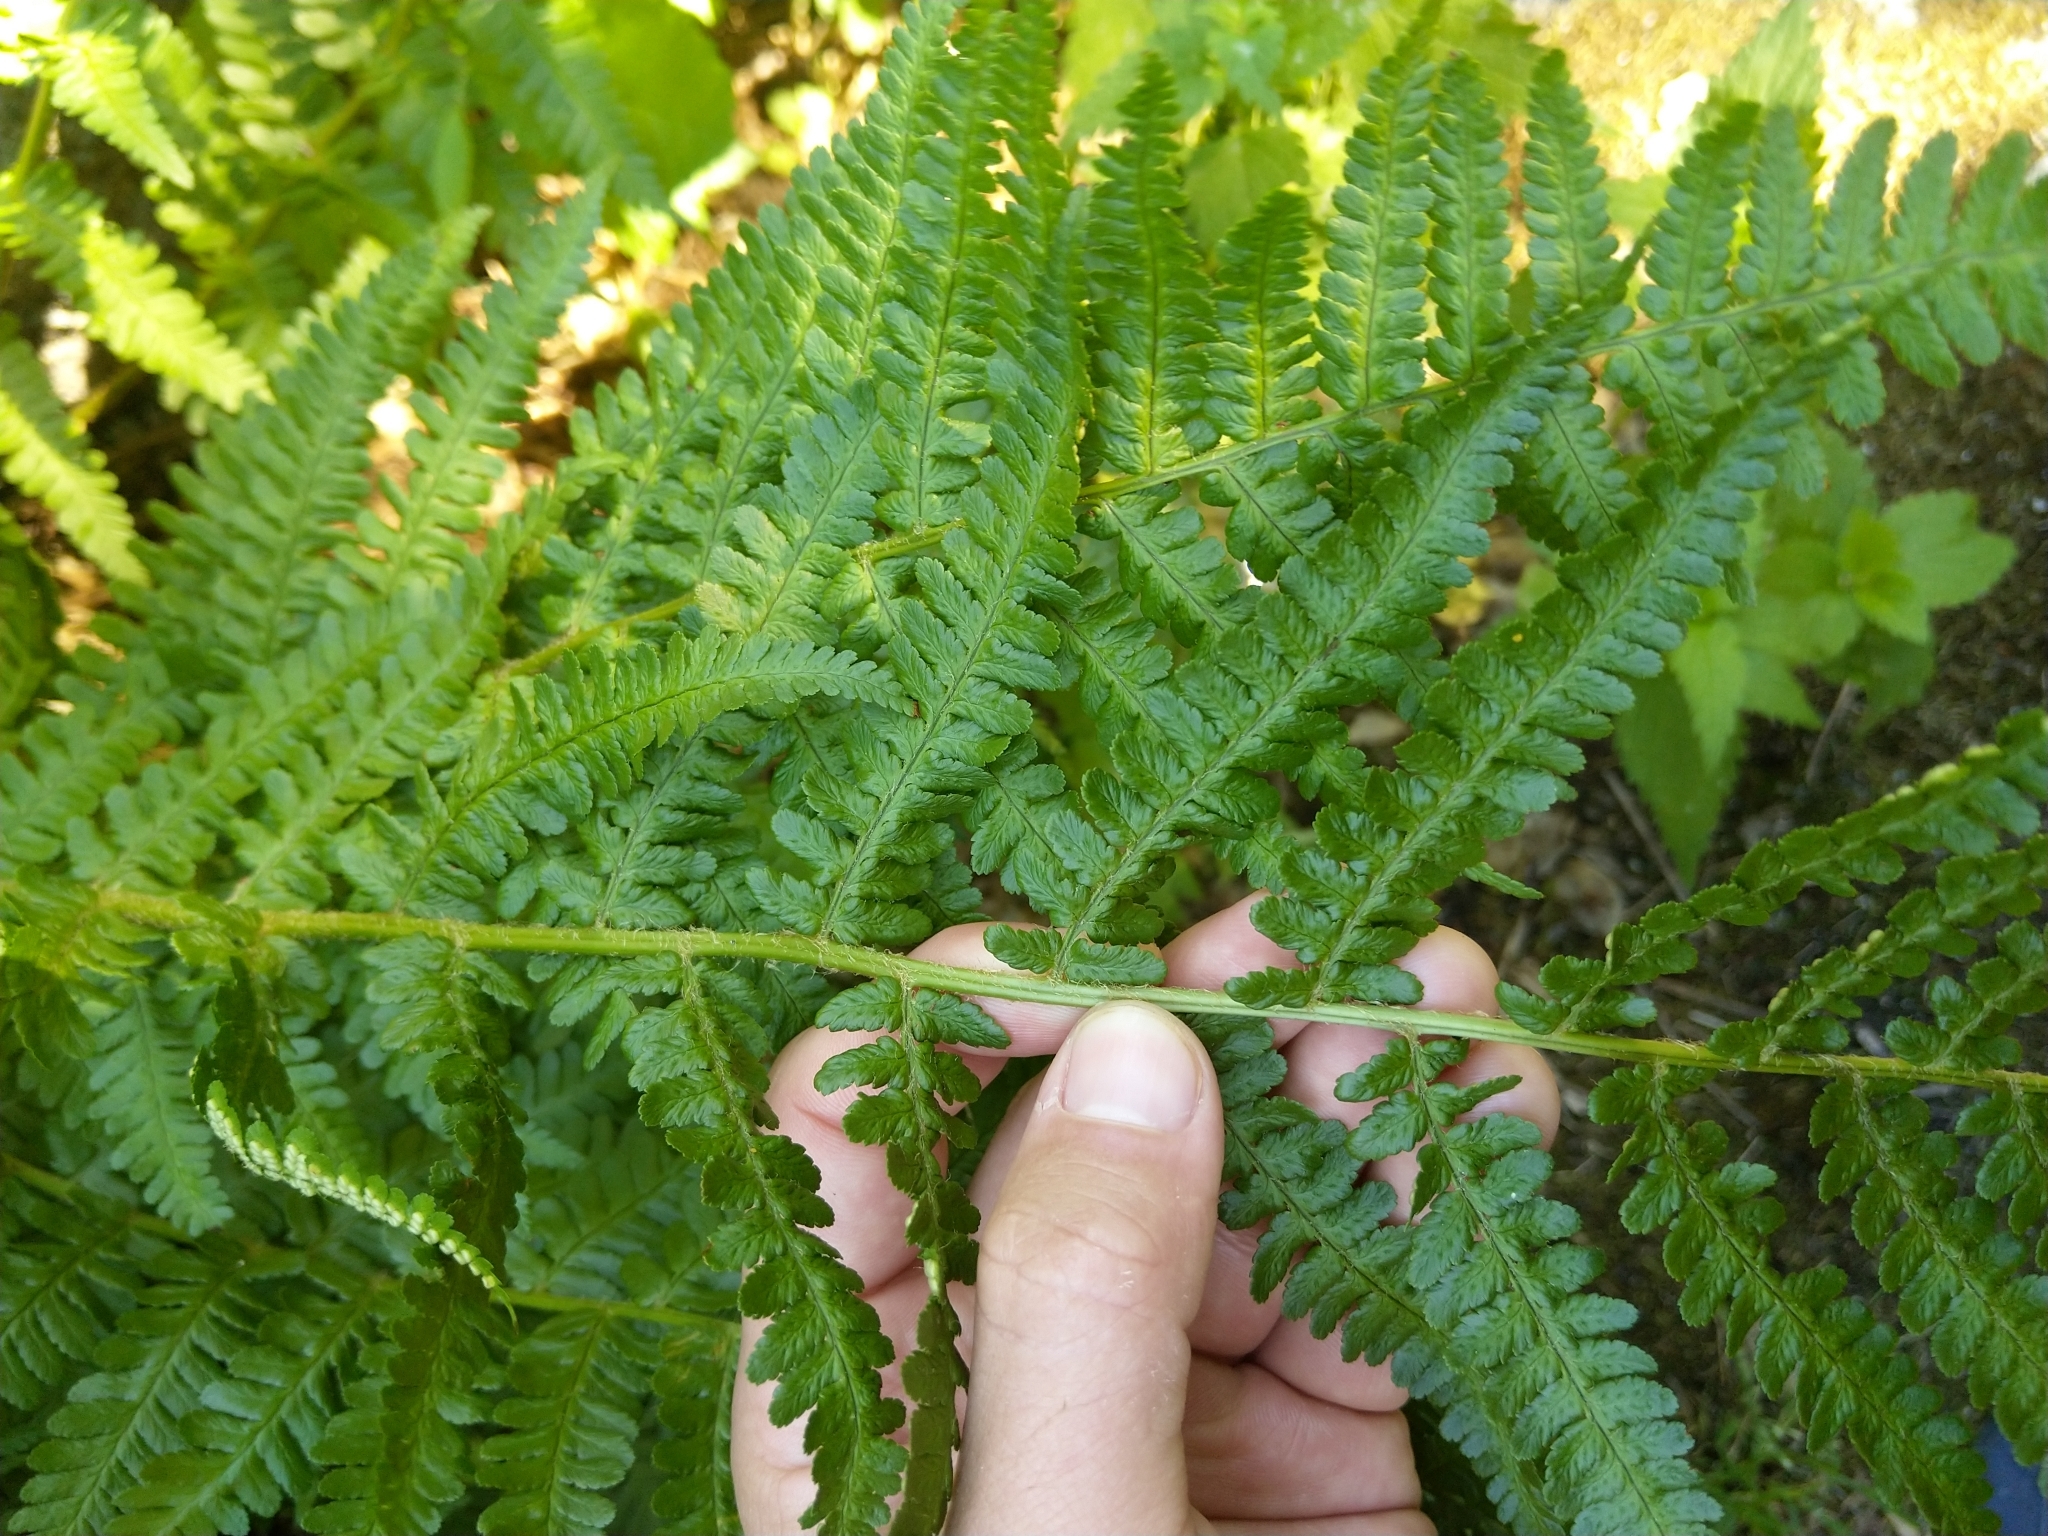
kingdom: Plantae
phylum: Tracheophyta
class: Polypodiopsida
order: Polypodiales
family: Dryopteridaceae
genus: Dryopteris
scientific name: Dryopteris filix-mas
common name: Male fern
